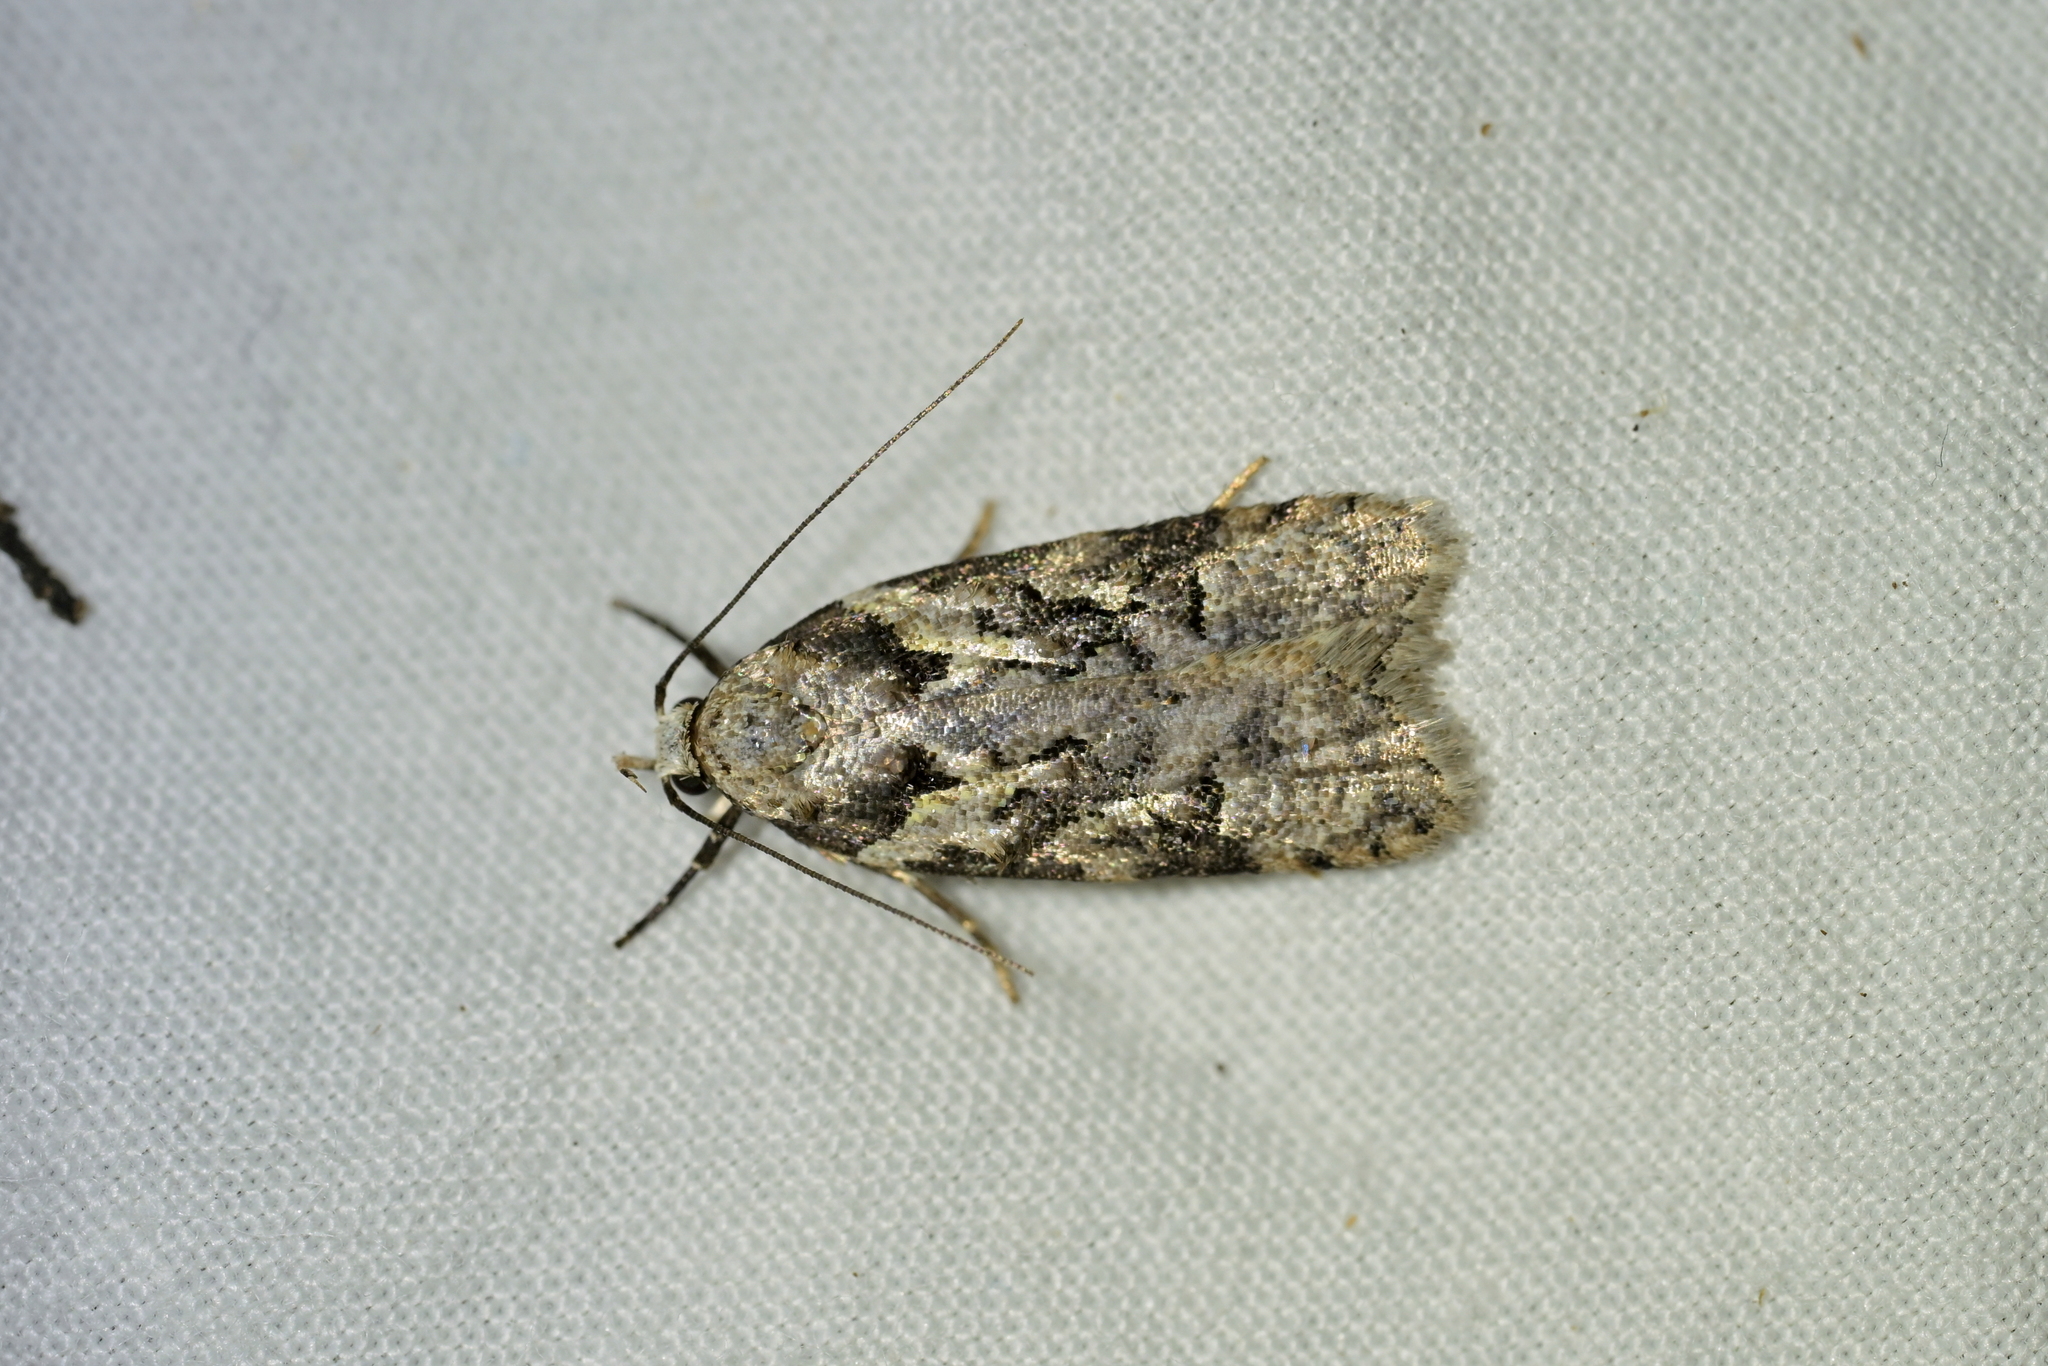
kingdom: Animalia
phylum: Arthropoda
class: Insecta
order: Lepidoptera
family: Oecophoridae
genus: Izatha
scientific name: Izatha epiphanes
